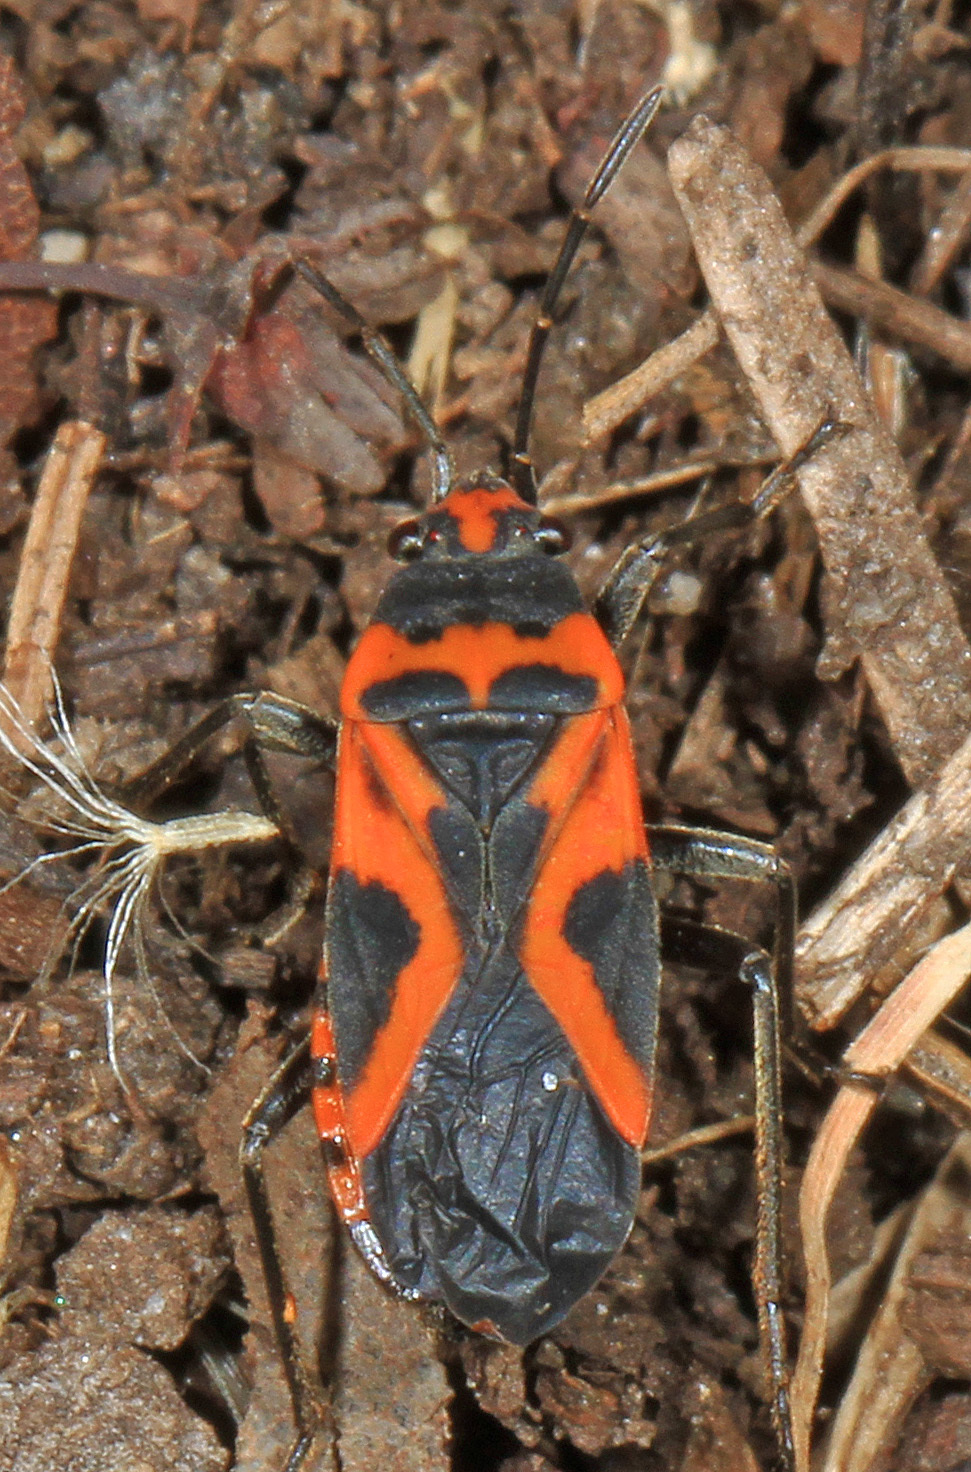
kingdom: Animalia
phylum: Arthropoda
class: Insecta
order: Hemiptera
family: Lygaeidae
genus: Lygaeus
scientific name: Lygaeus turcicus
